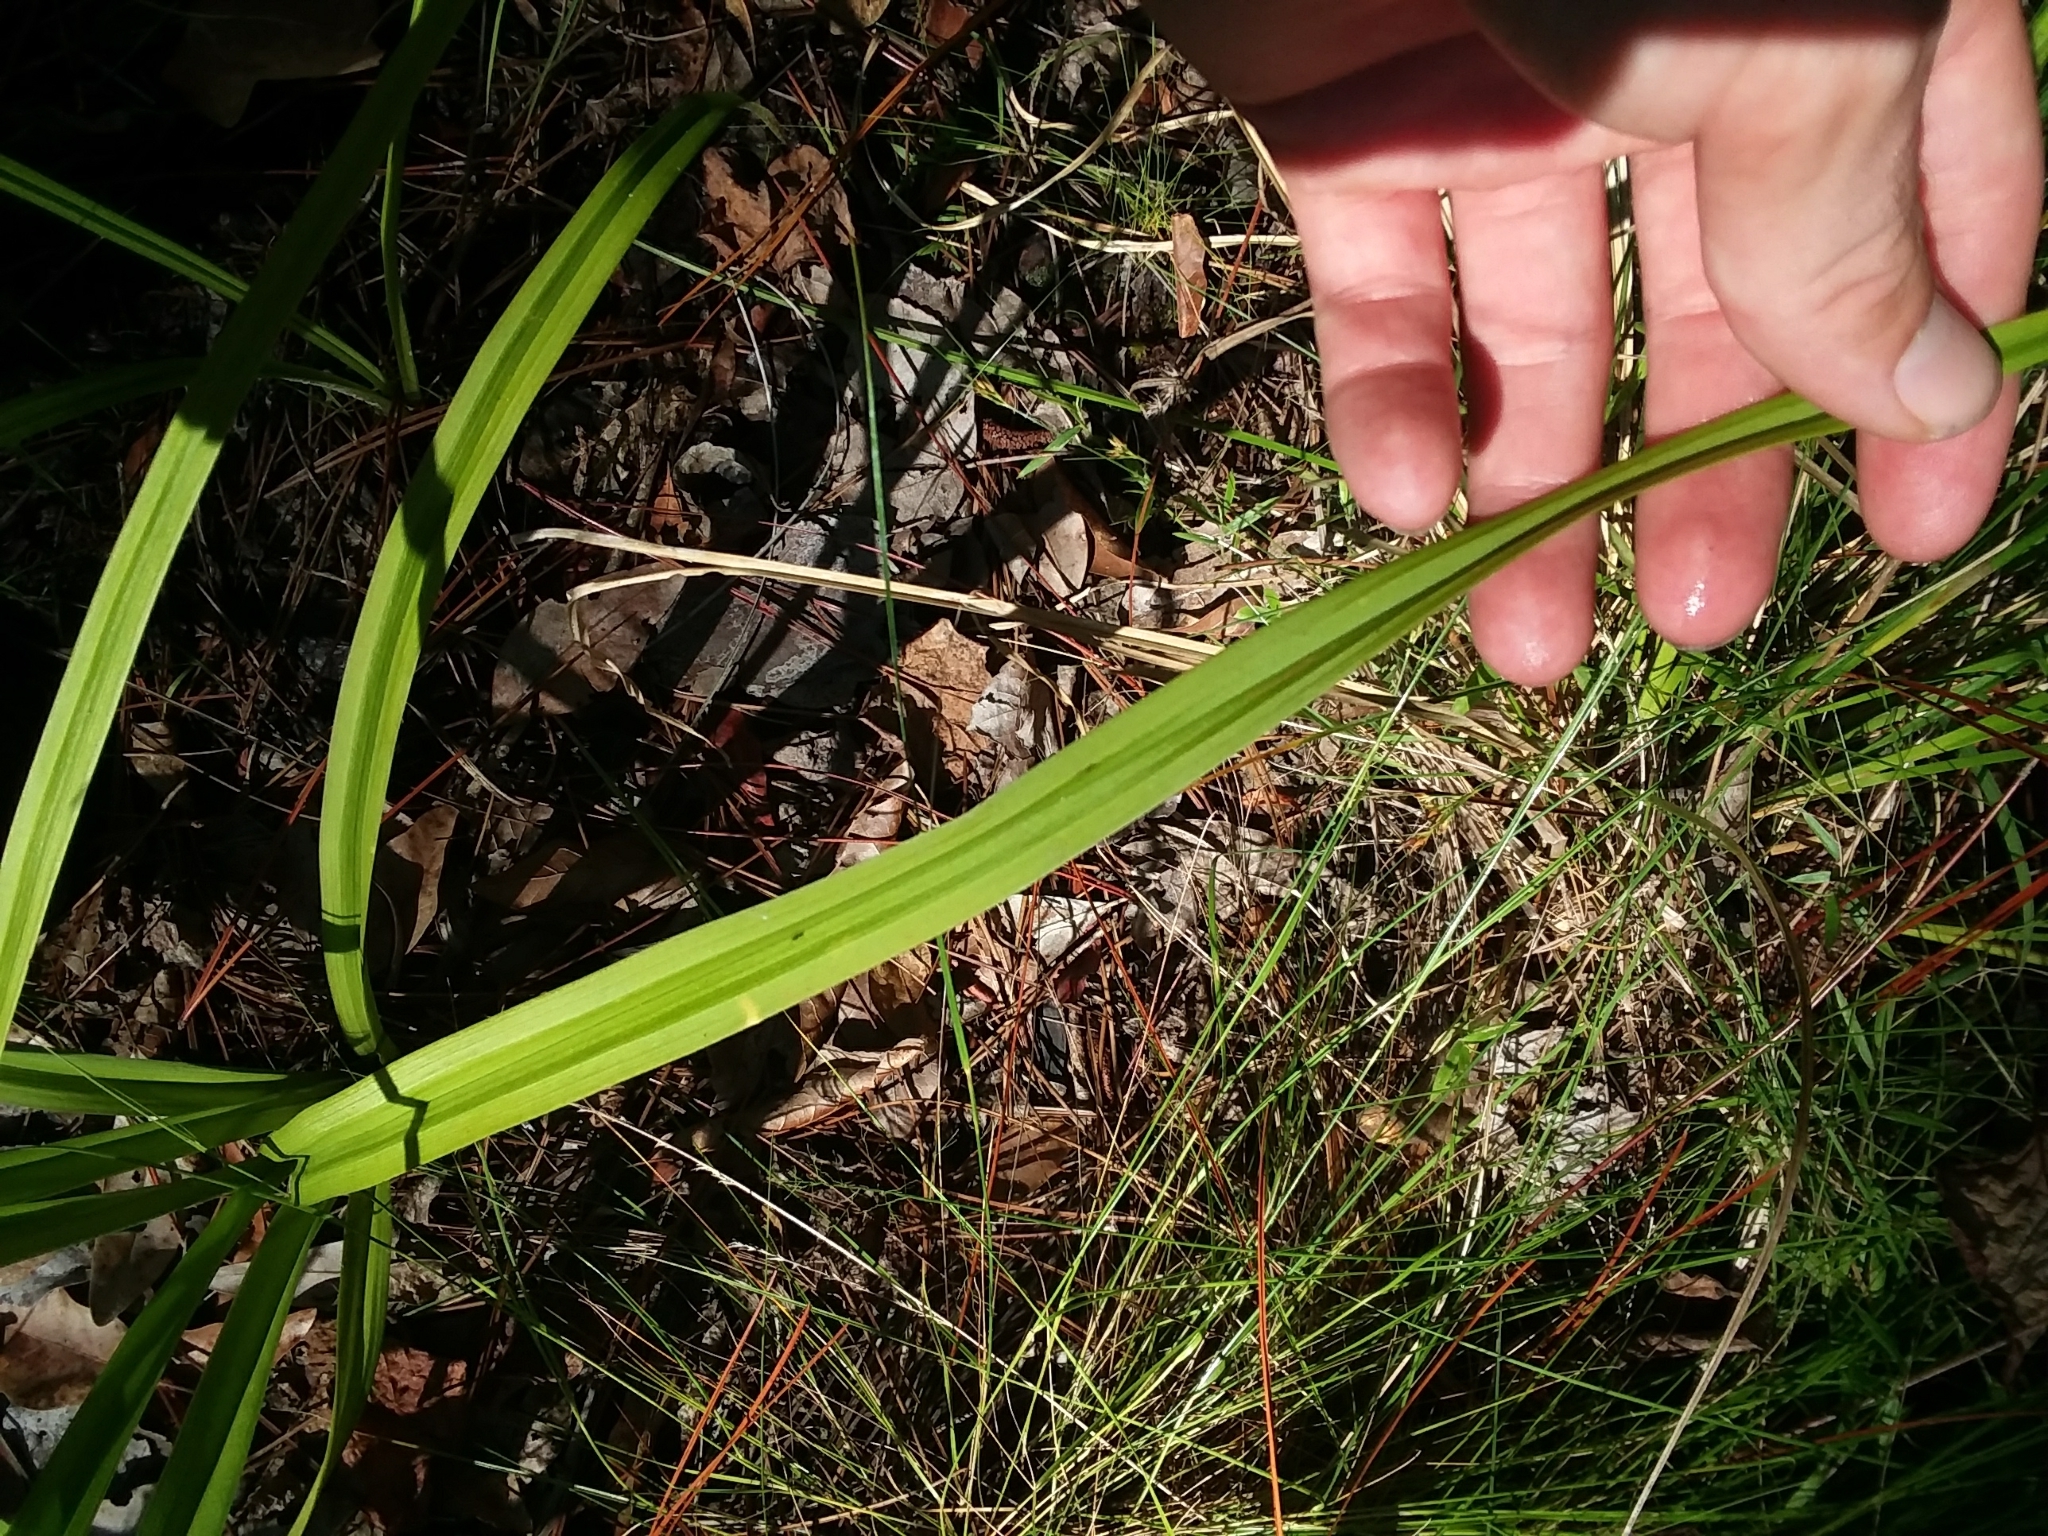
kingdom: Plantae
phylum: Tracheophyta
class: Liliopsida
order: Liliales
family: Melanthiaceae
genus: Melanthium
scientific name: Melanthium virginicum
